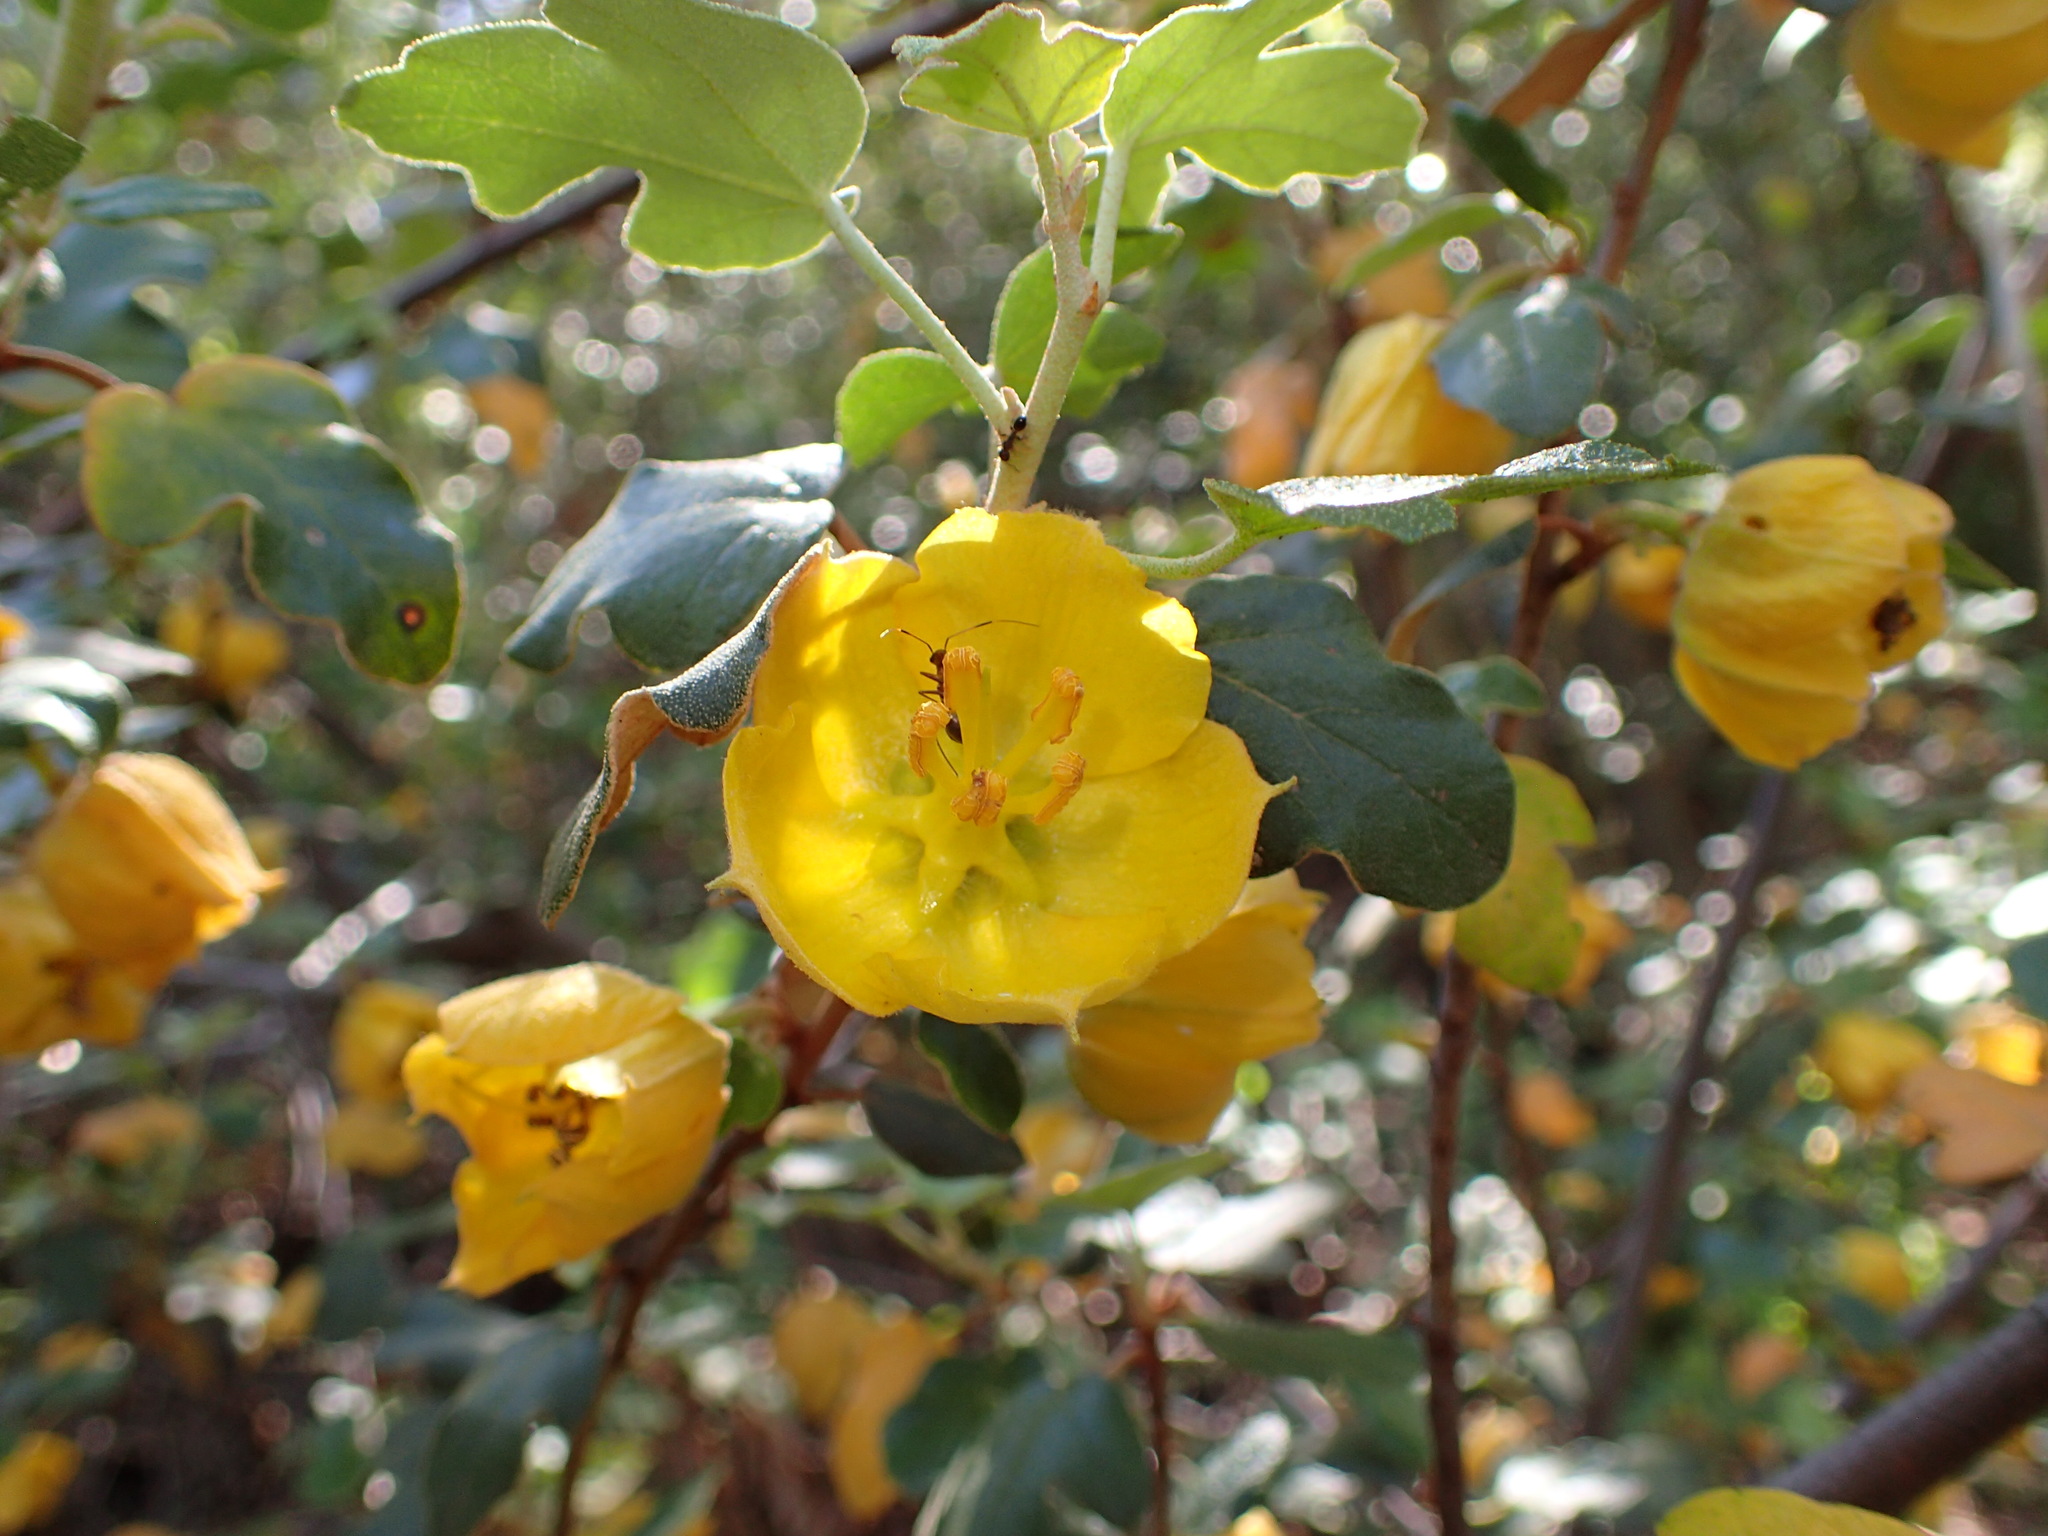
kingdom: Plantae
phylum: Tracheophyta
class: Magnoliopsida
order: Malvales
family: Malvaceae
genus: Fremontodendron
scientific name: Fremontodendron californicum
